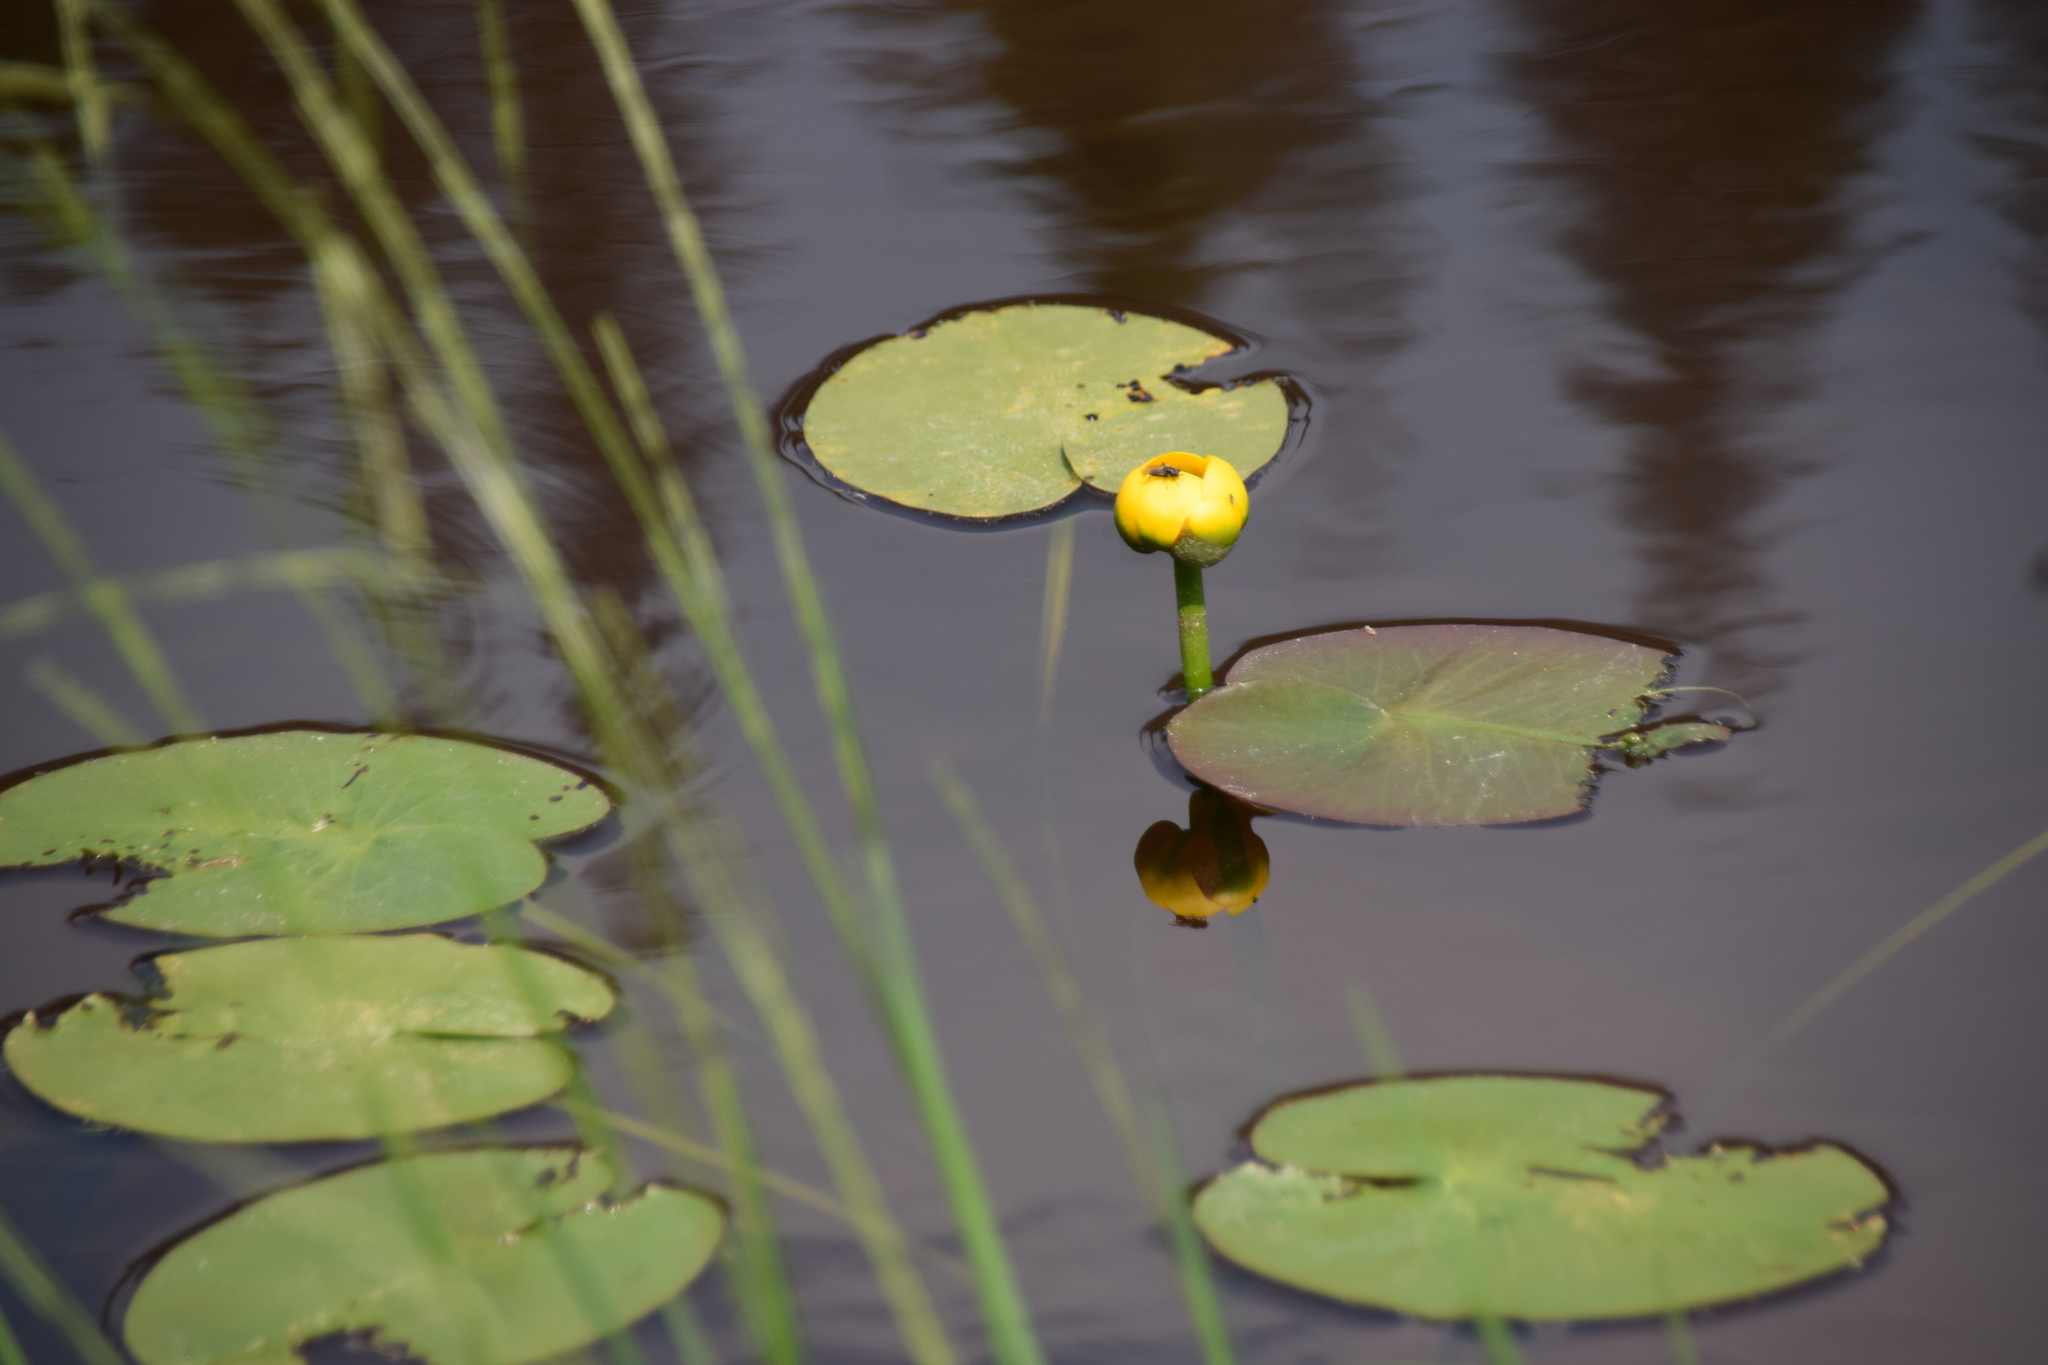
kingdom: Plantae
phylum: Tracheophyta
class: Magnoliopsida
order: Nymphaeales
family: Nymphaeaceae
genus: Nuphar
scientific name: Nuphar variegata
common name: Beaver-root
